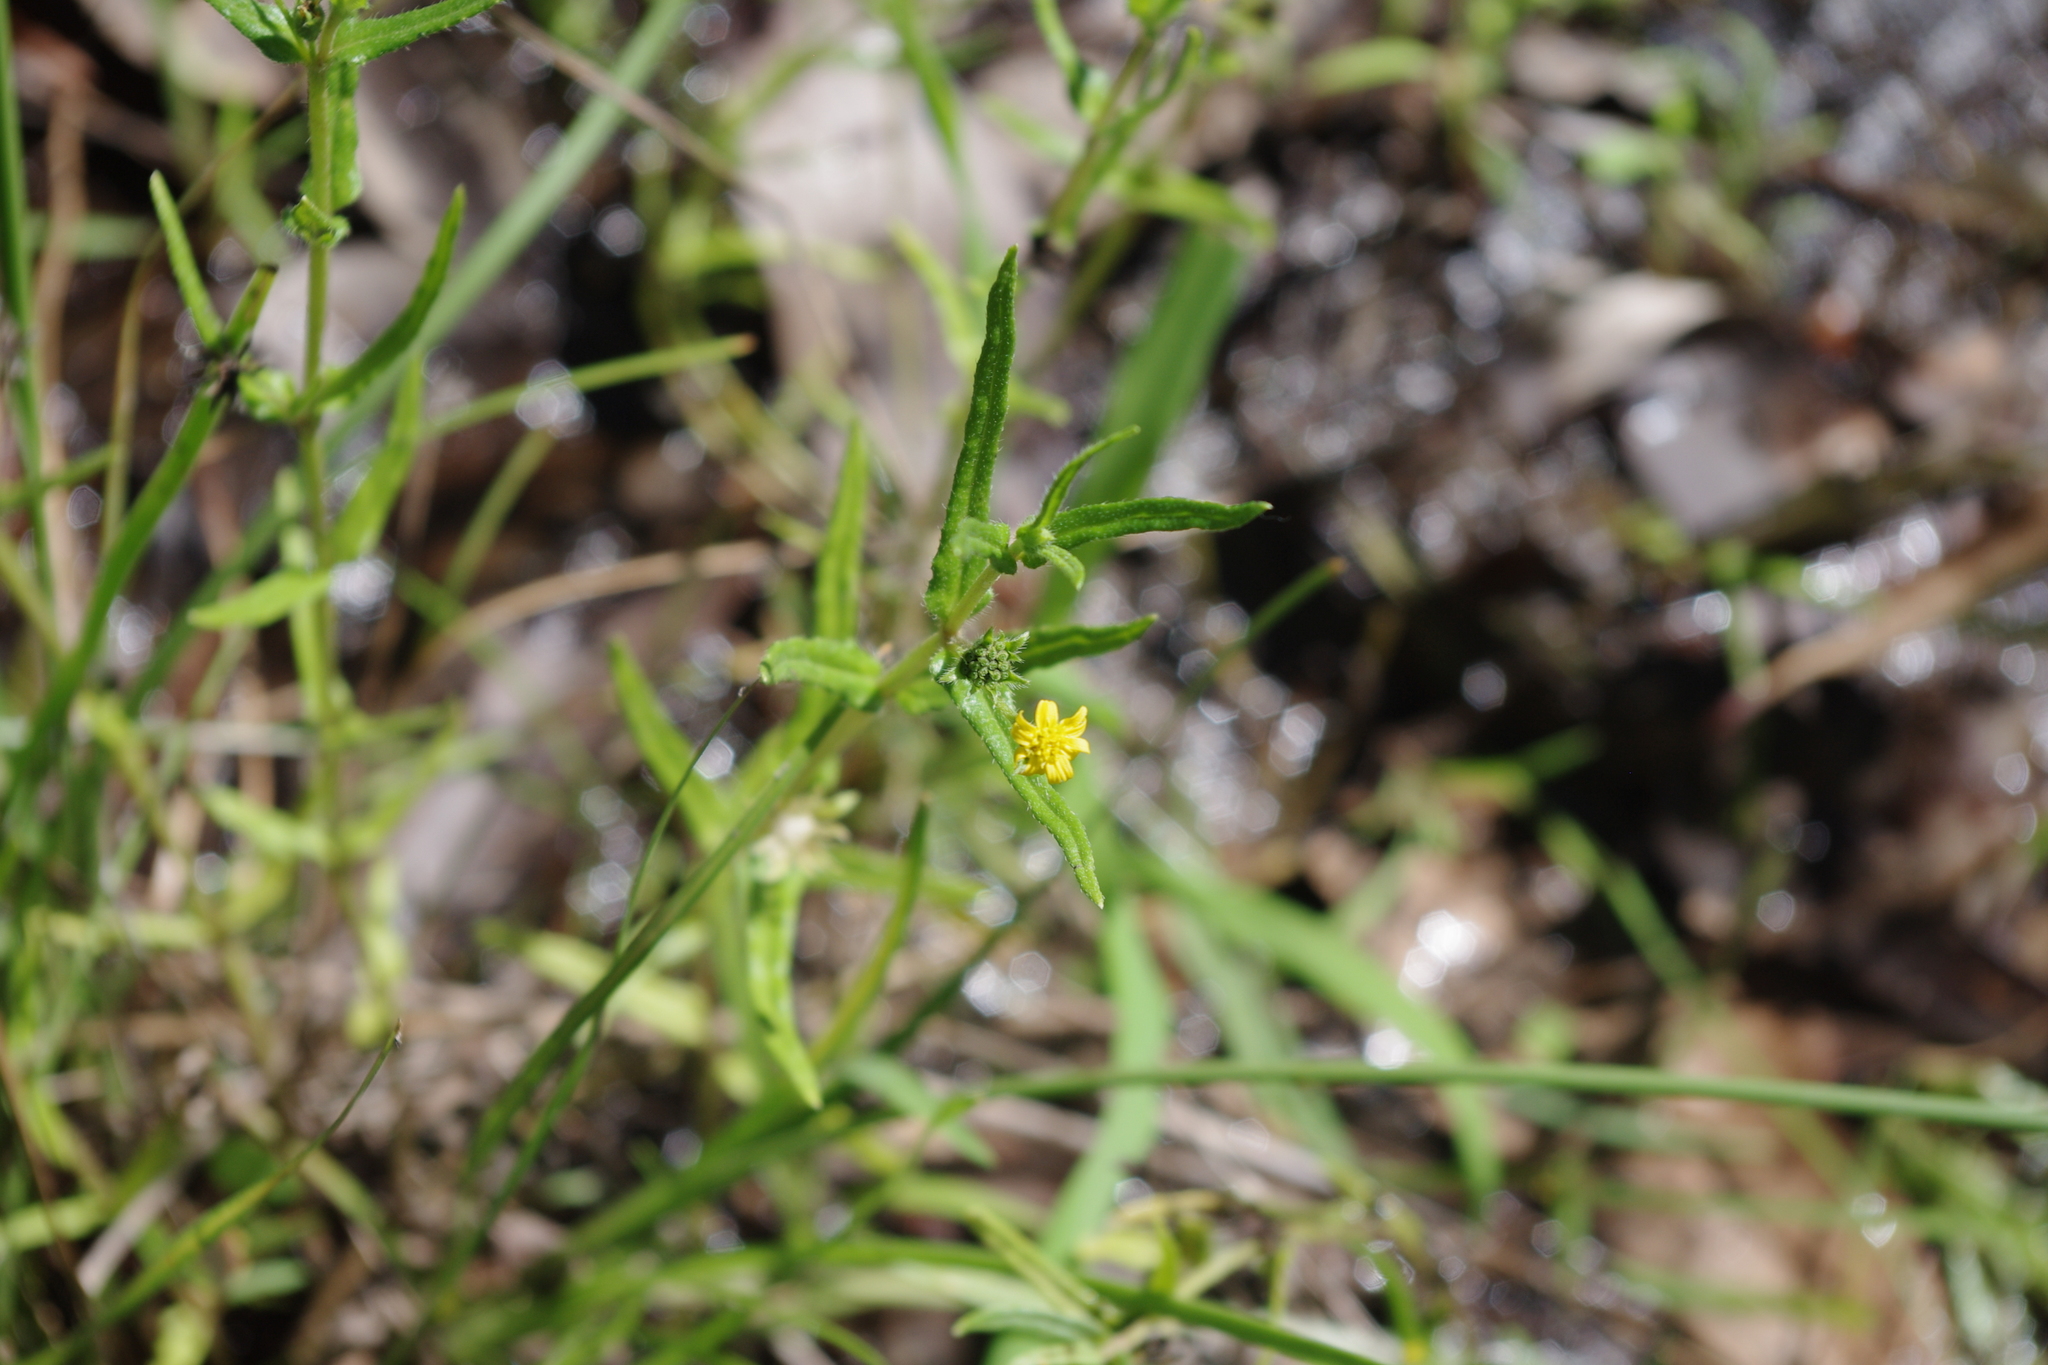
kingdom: Plantae
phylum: Tracheophyta
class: Magnoliopsida
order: Asterales
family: Asteraceae
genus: Eclipta
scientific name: Eclipta platyglossa
